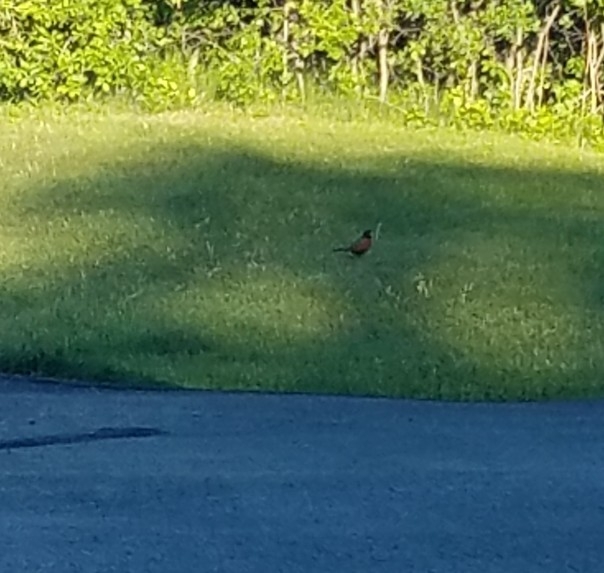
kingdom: Animalia
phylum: Chordata
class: Aves
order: Passeriformes
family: Turdidae
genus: Turdus
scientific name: Turdus migratorius
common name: American robin
